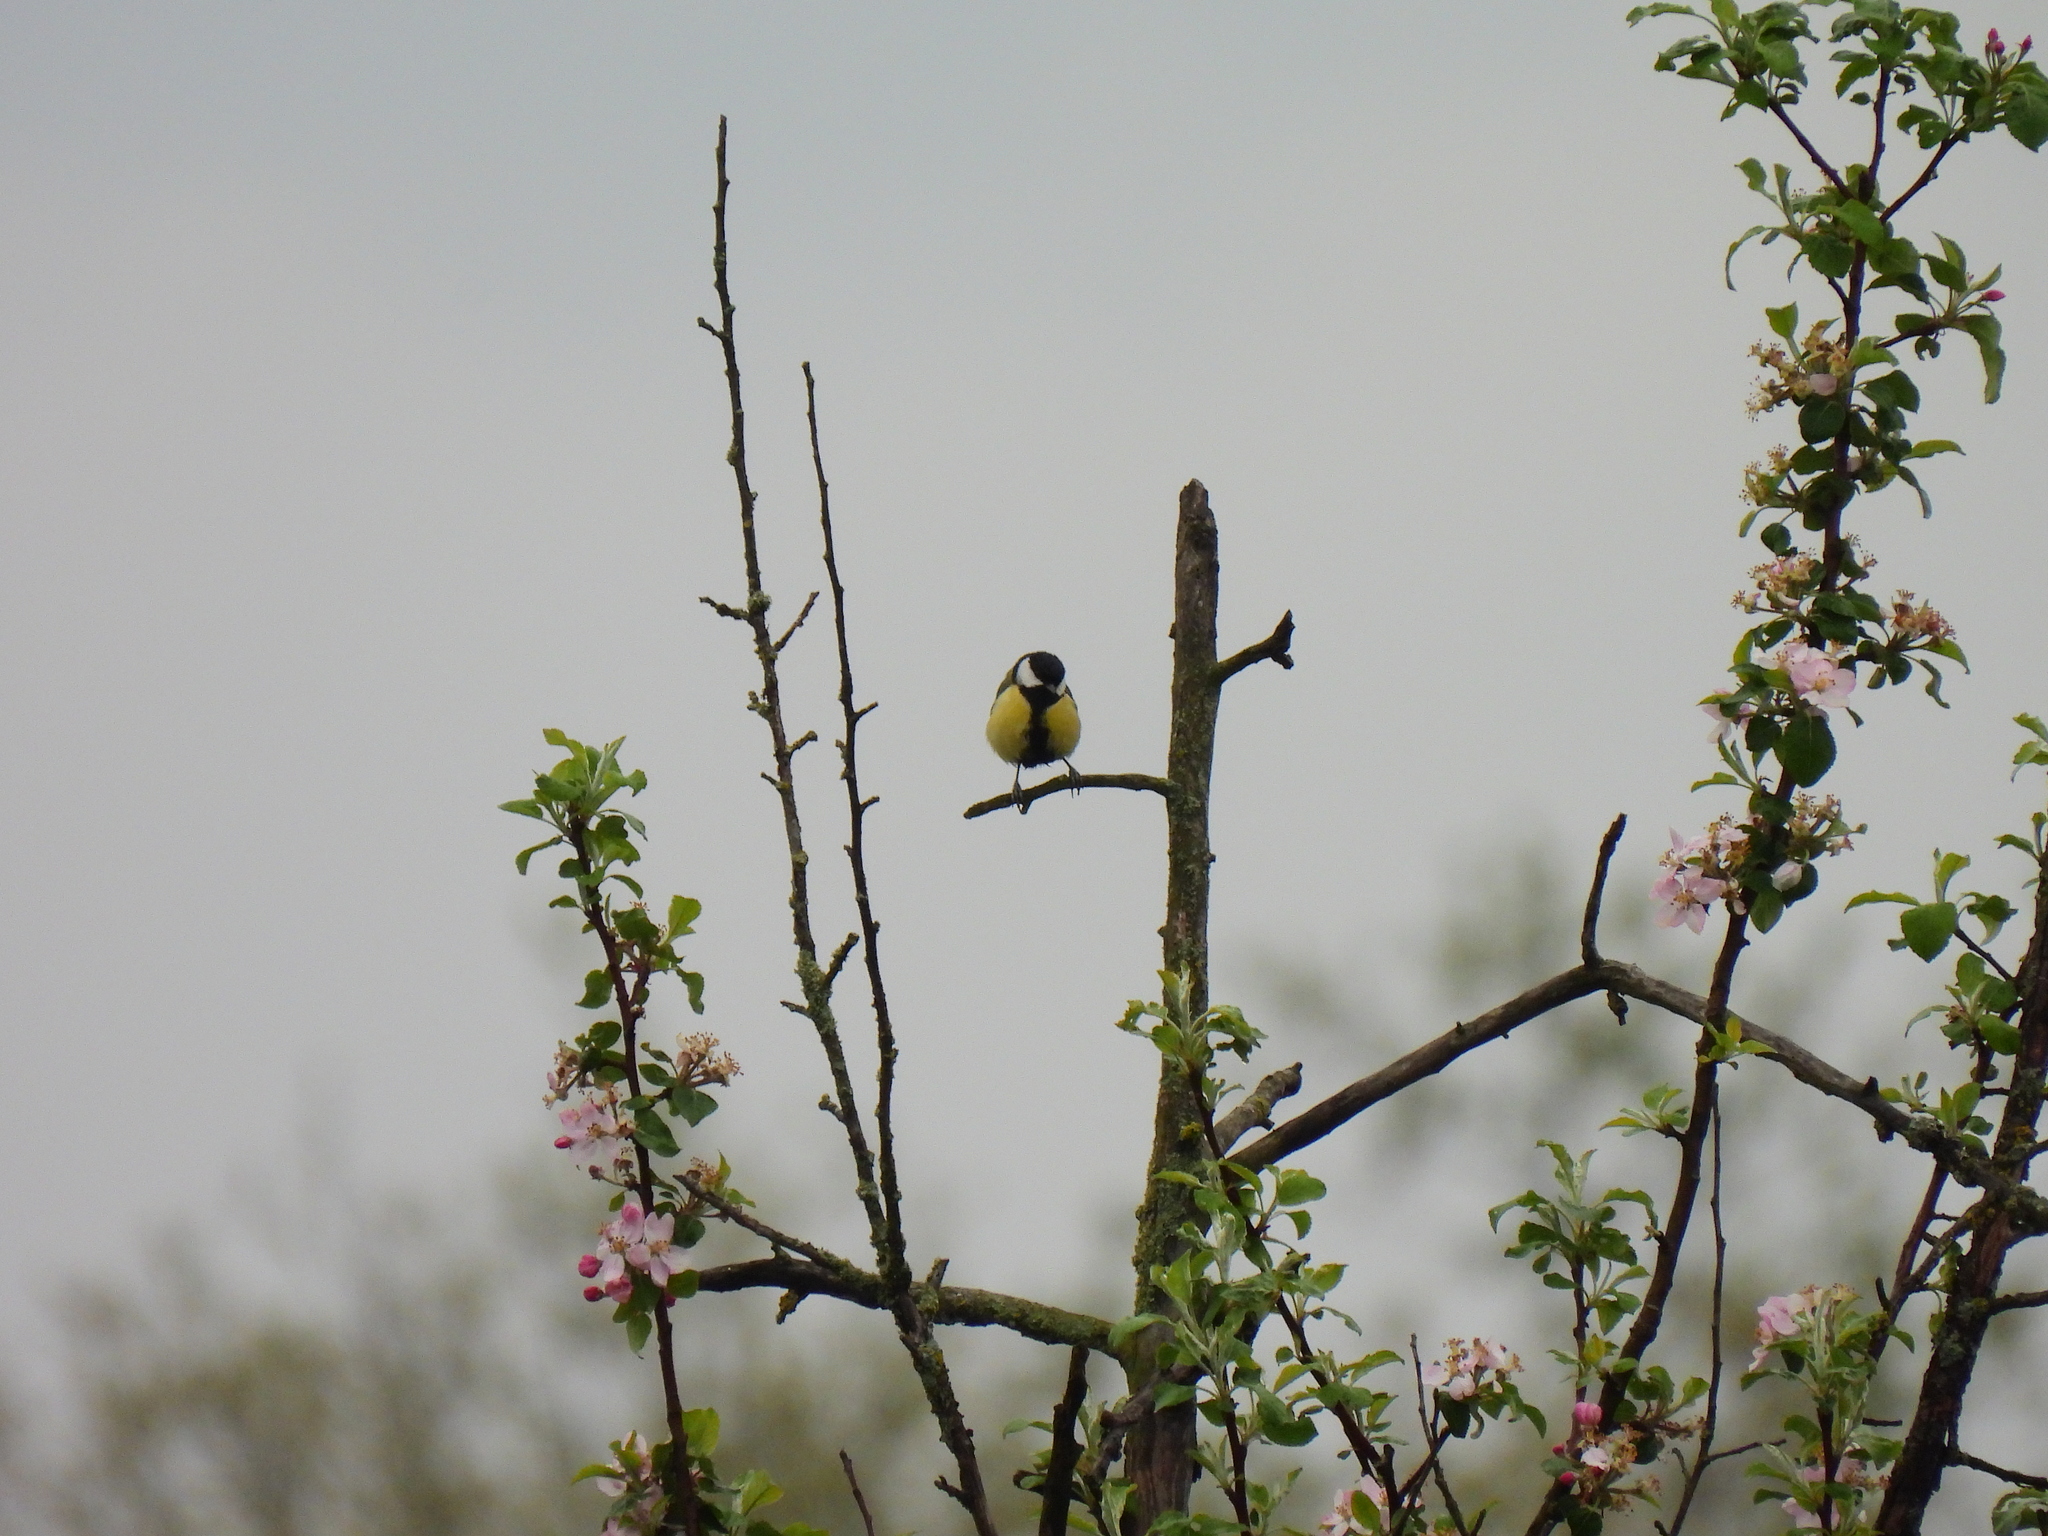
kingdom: Animalia
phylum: Chordata
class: Aves
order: Passeriformes
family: Paridae
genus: Parus
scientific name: Parus major
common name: Great tit
